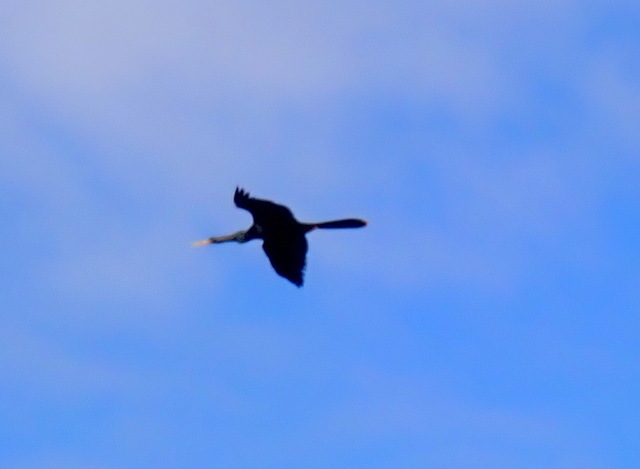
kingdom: Animalia
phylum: Chordata
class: Aves
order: Suliformes
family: Anhingidae
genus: Anhinga
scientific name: Anhinga anhinga
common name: Anhinga
